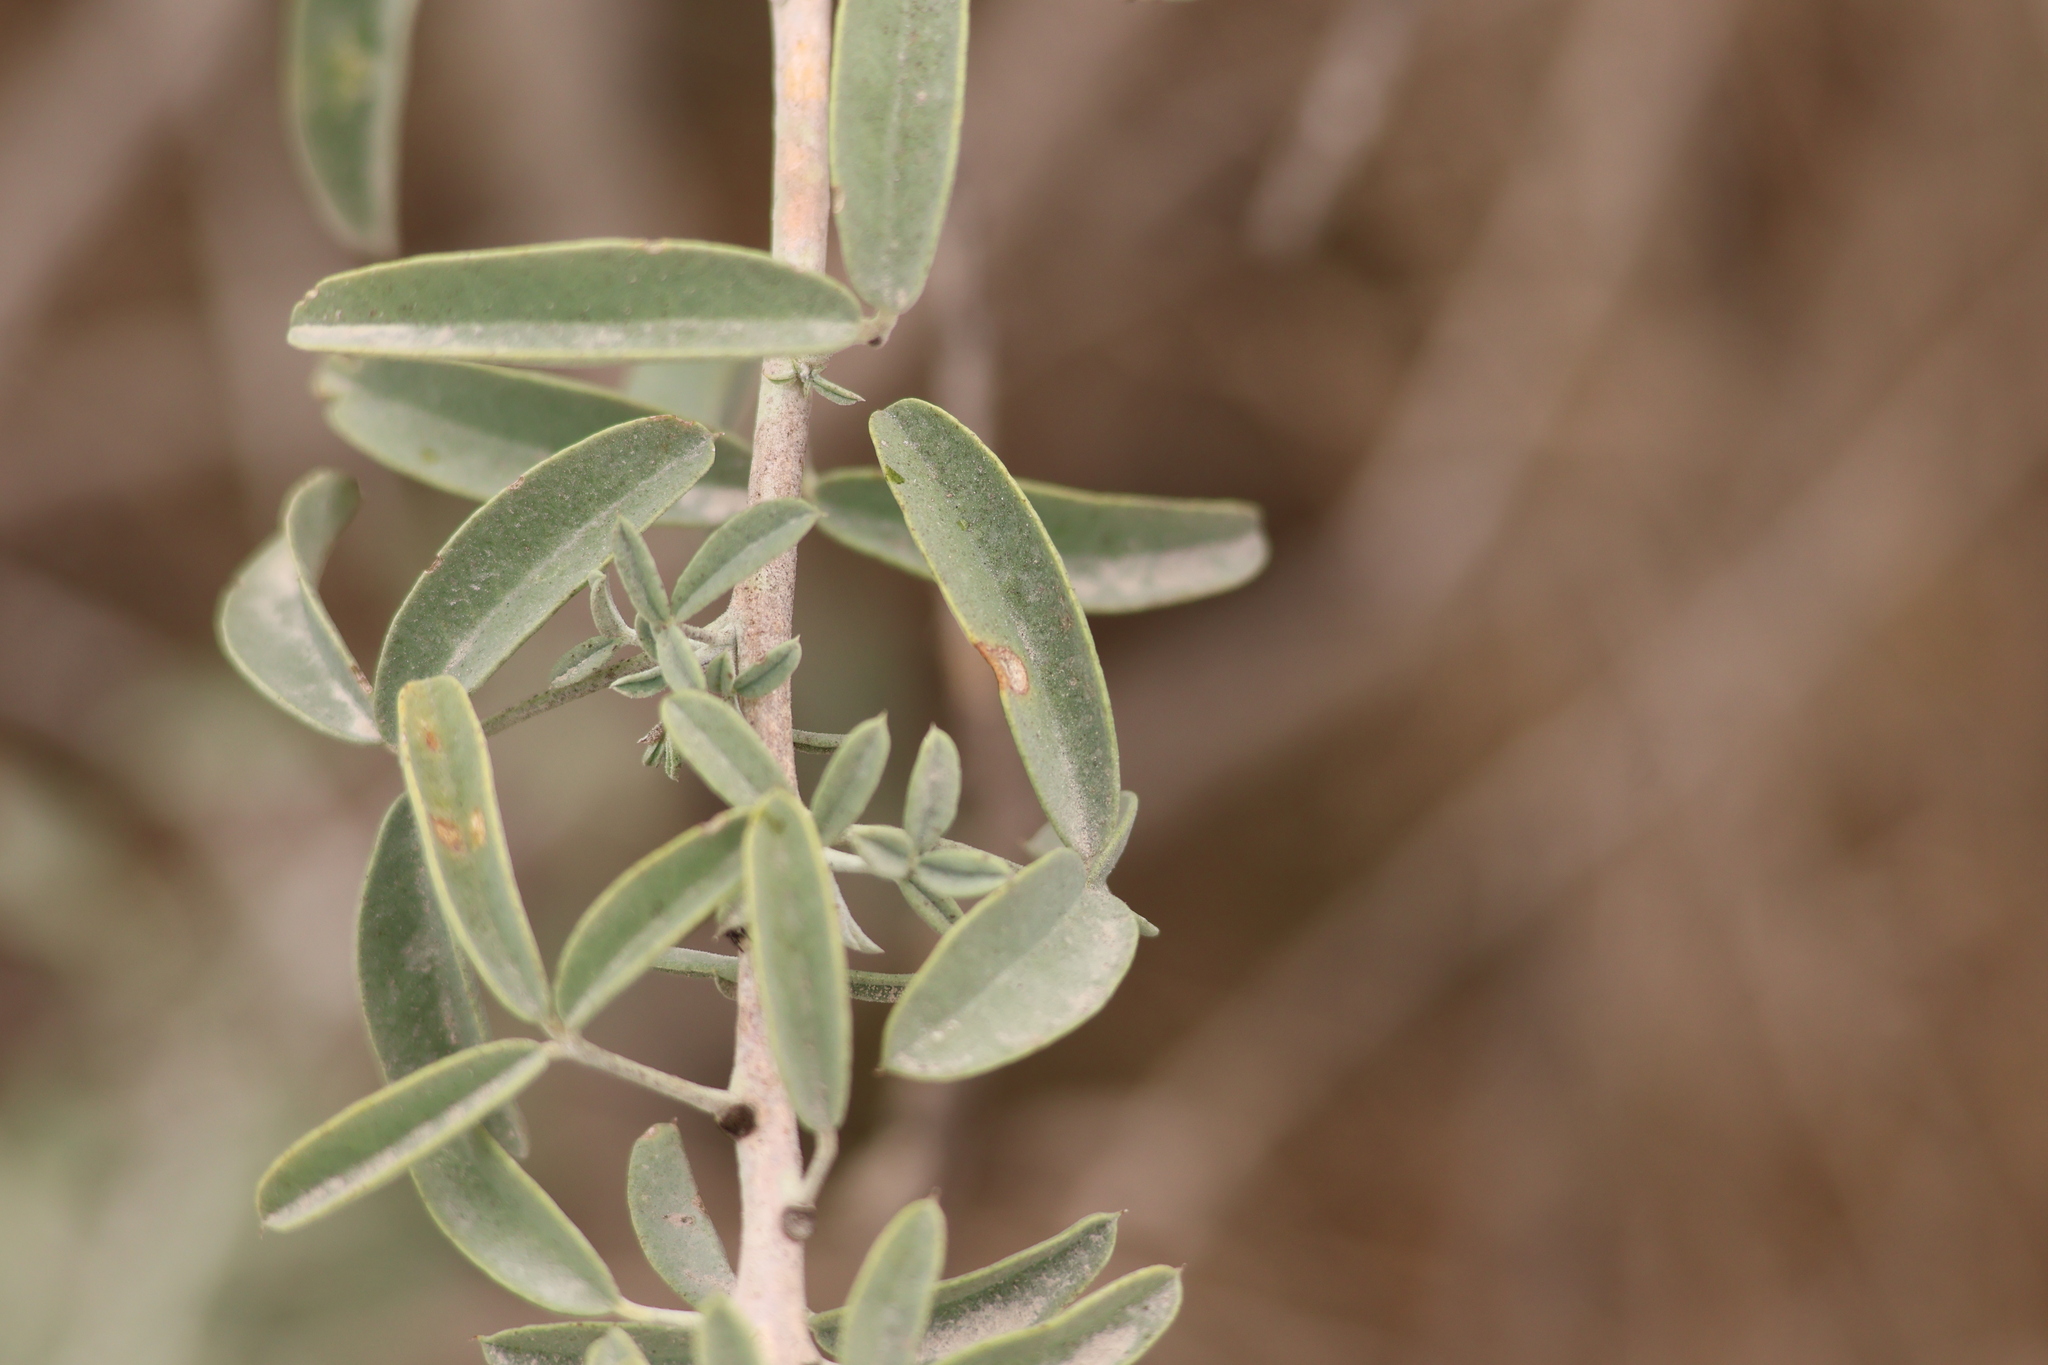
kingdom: Plantae
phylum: Tracheophyta
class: Magnoliopsida
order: Brassicales
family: Cleomaceae
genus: Cleomella
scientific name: Cleomella arborea
